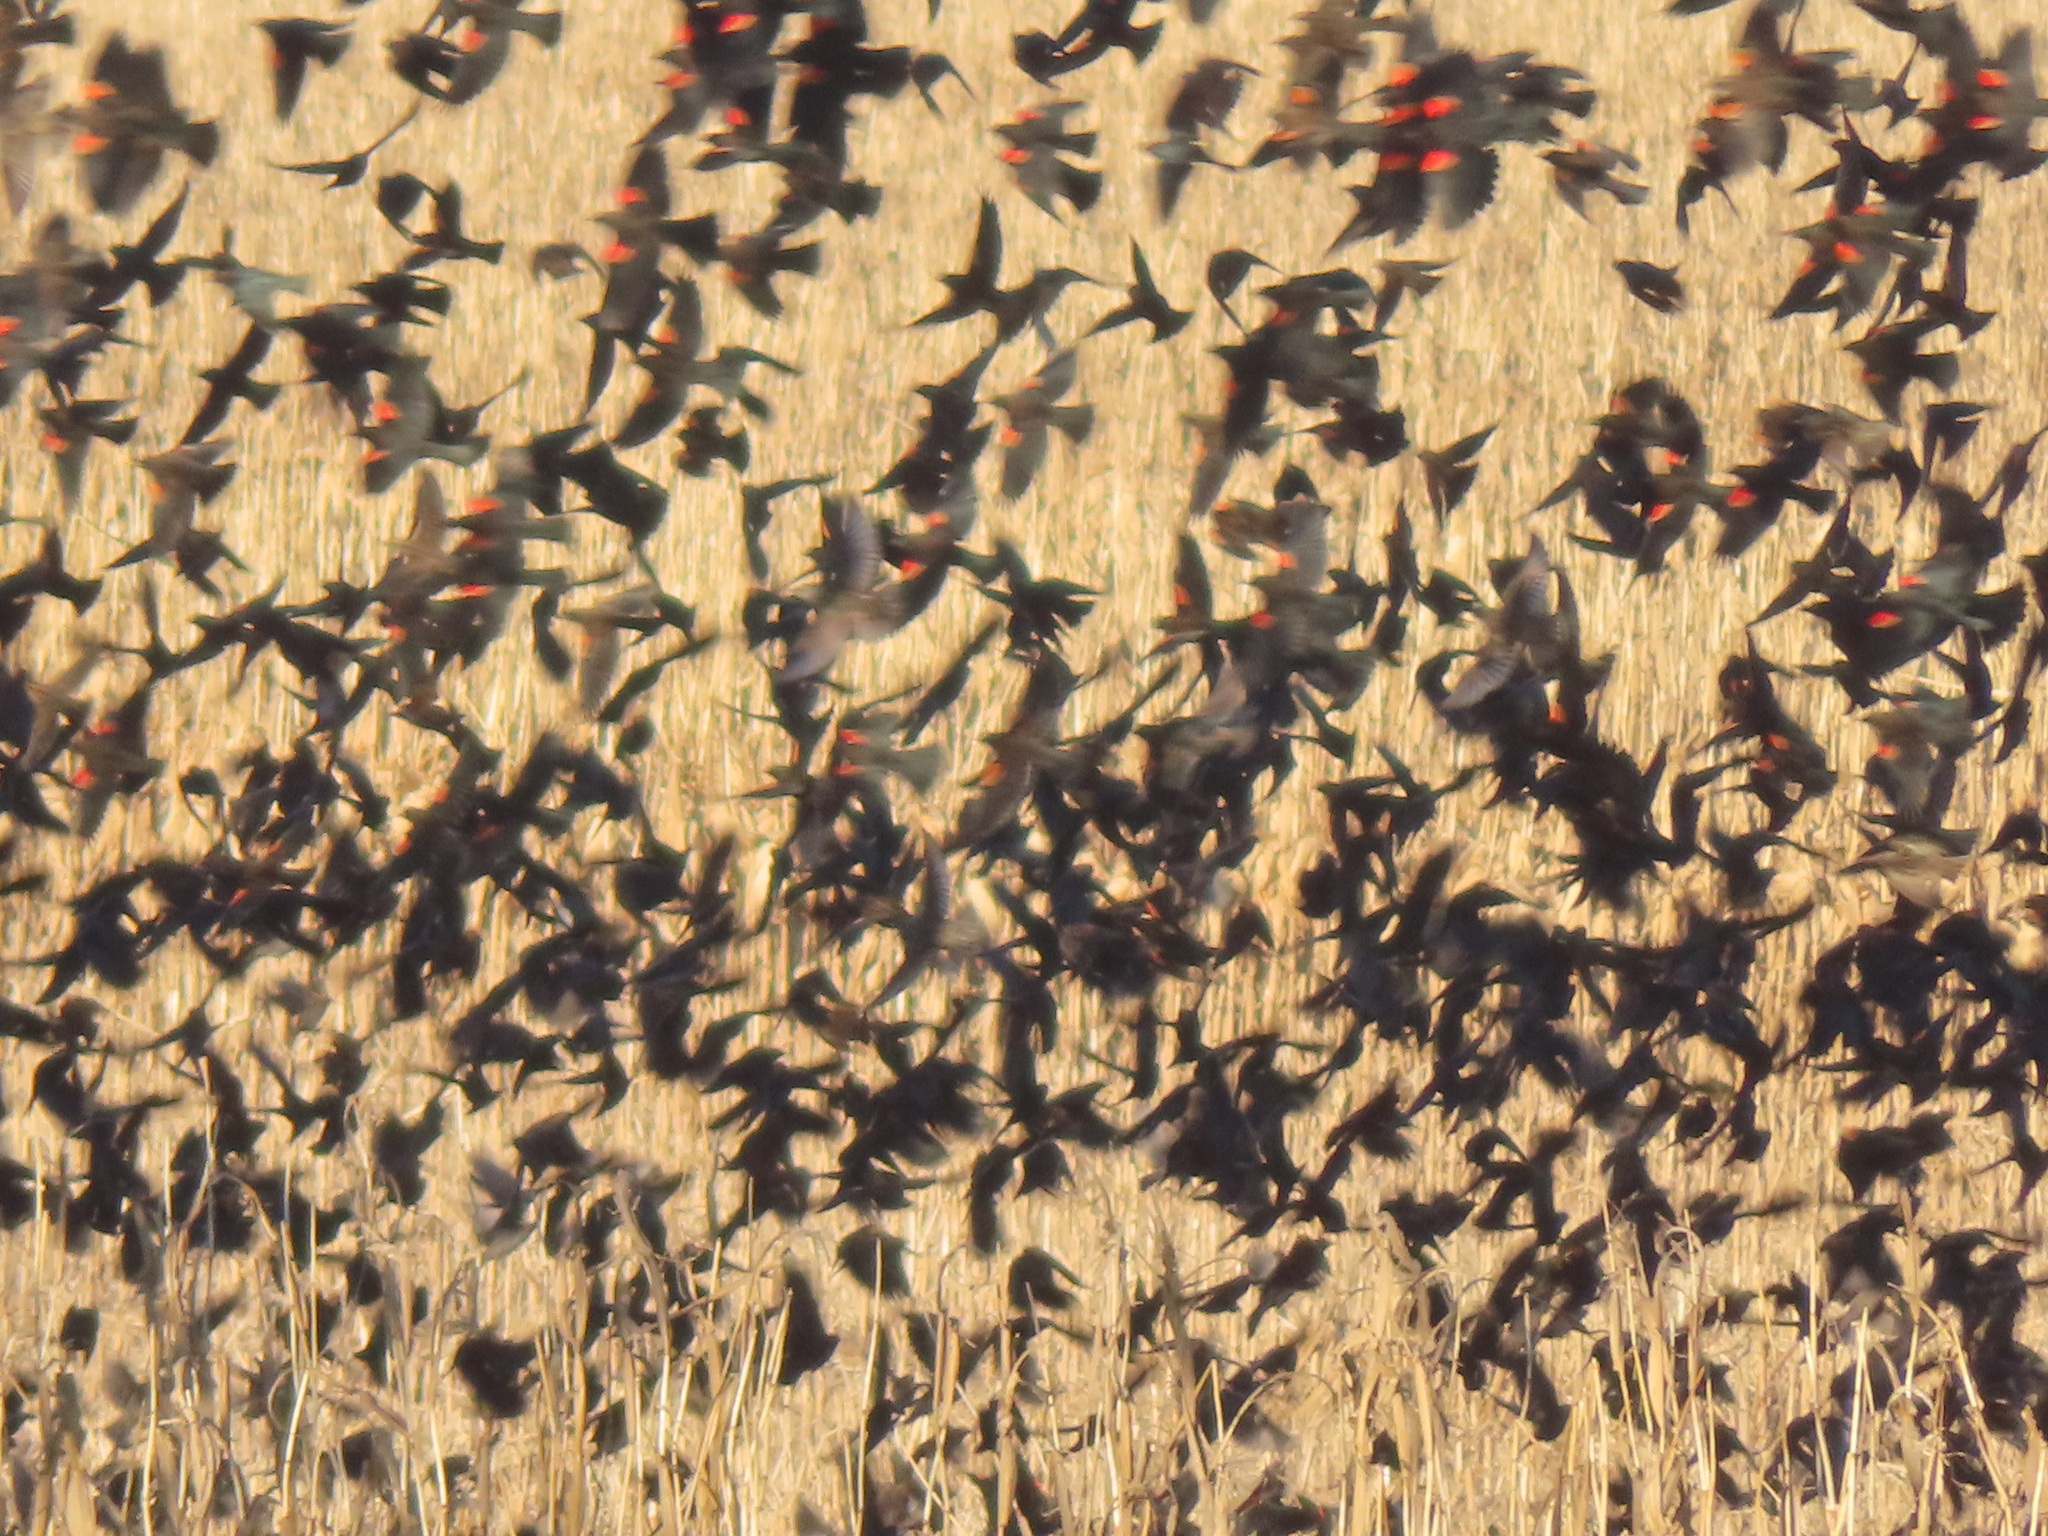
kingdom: Animalia
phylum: Chordata
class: Aves
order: Passeriformes
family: Icteridae
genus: Agelaius
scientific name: Agelaius phoeniceus
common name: Red-winged blackbird
